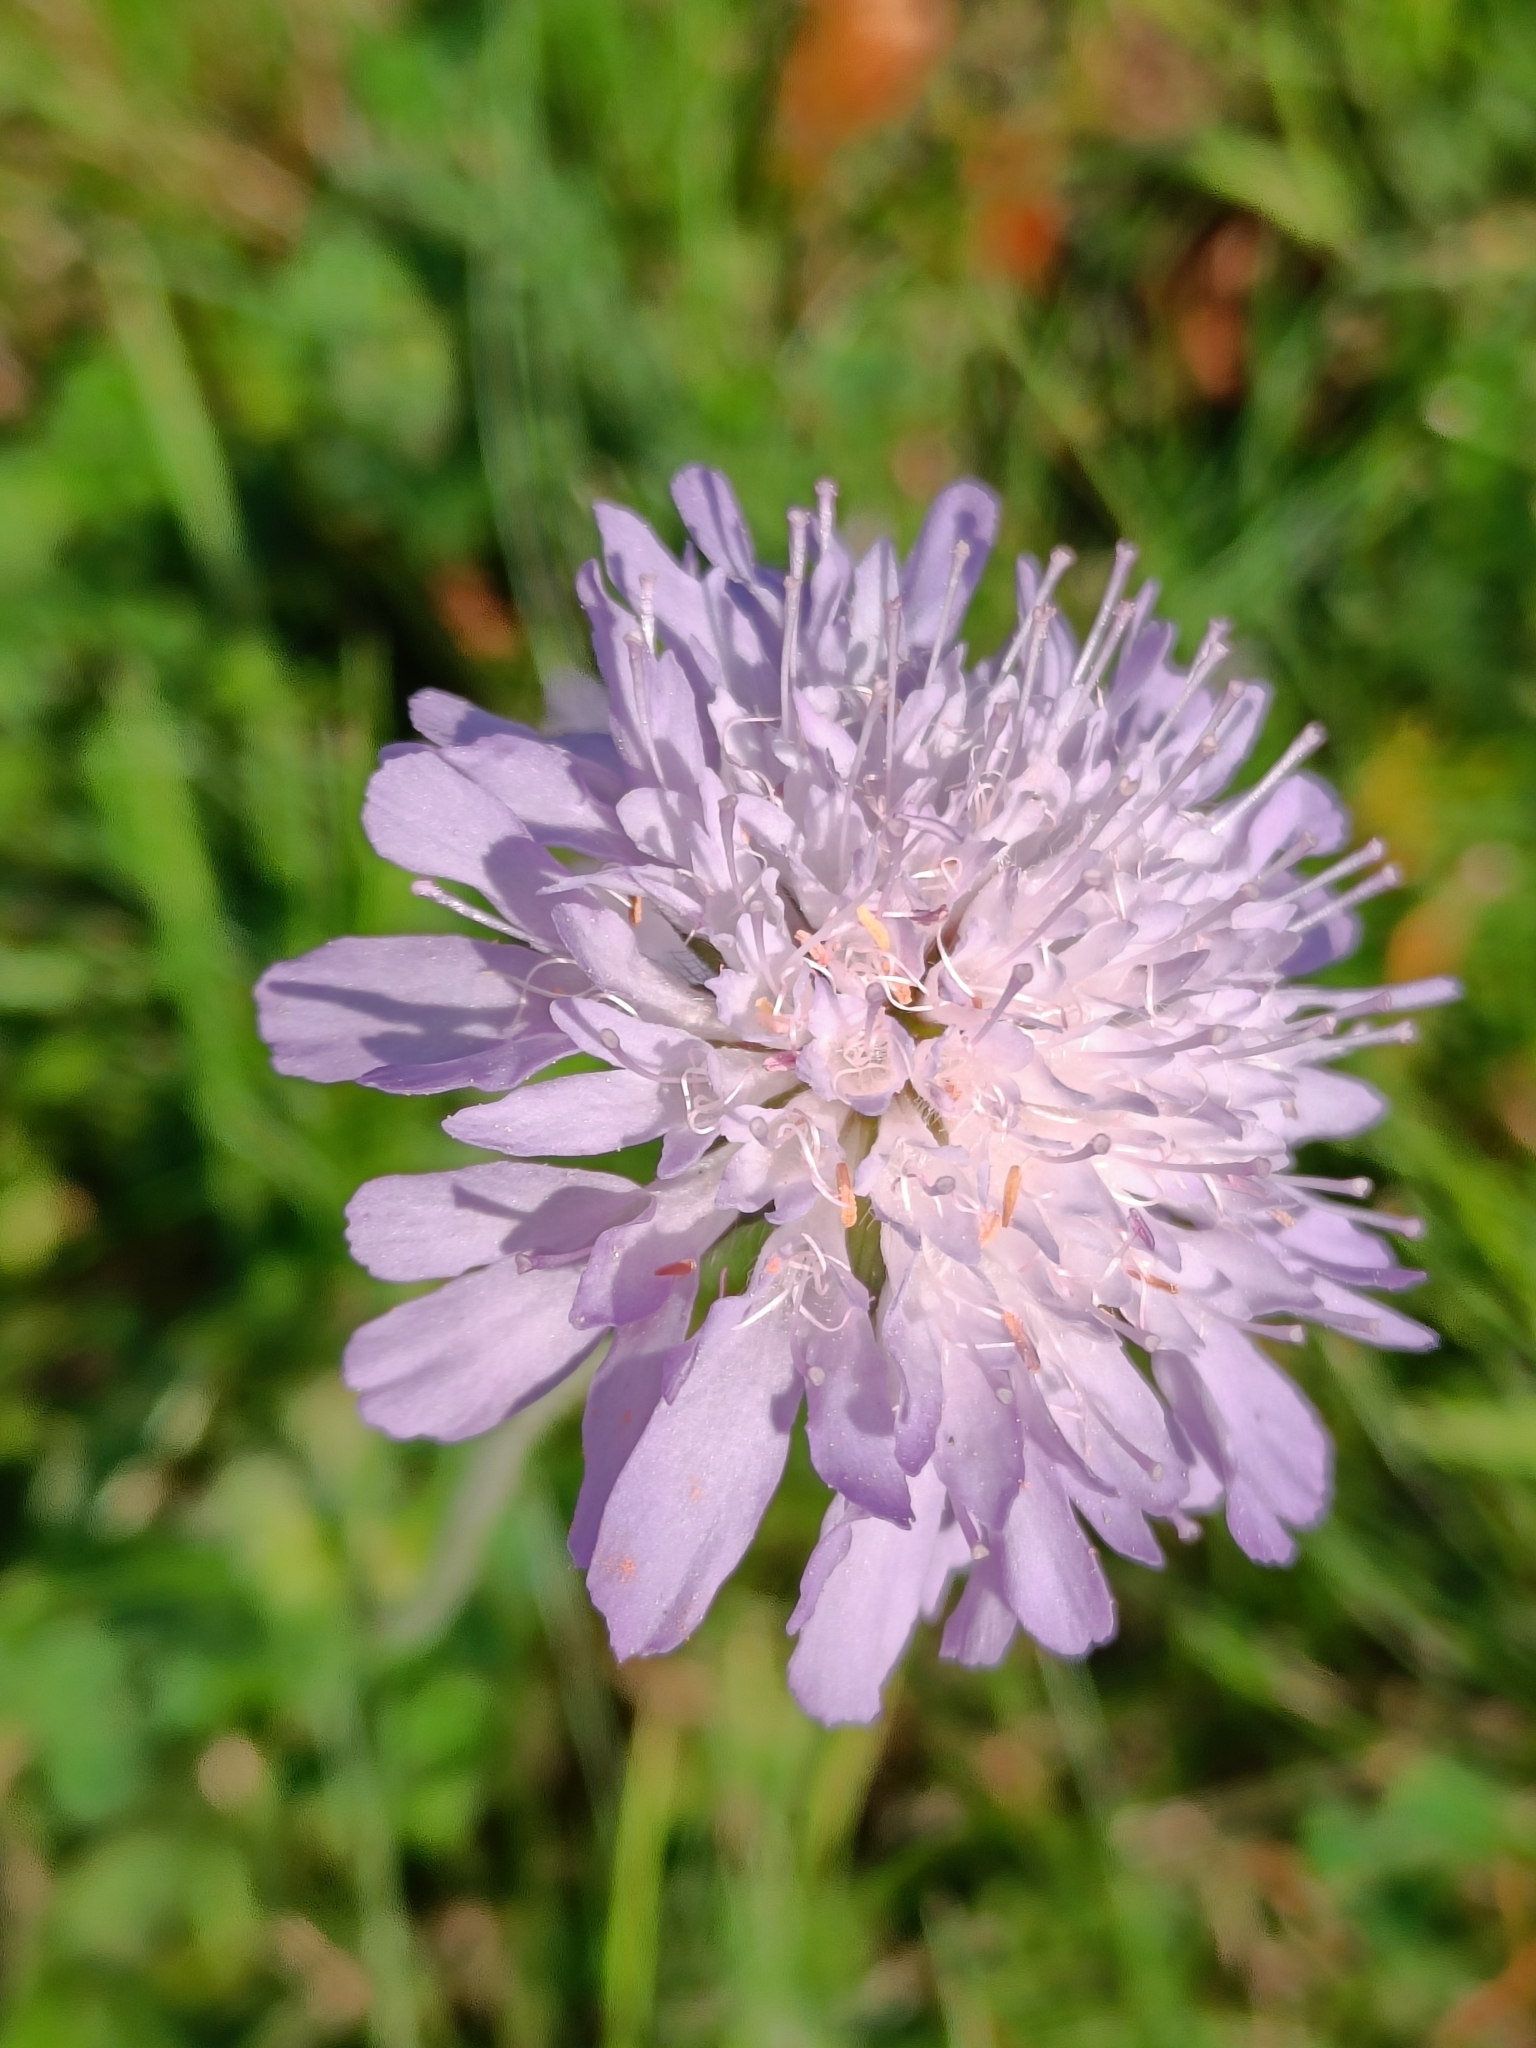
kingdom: Plantae
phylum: Tracheophyta
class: Magnoliopsida
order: Dipsacales
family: Caprifoliaceae
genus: Knautia
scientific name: Knautia arvensis
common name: Field scabiosa
